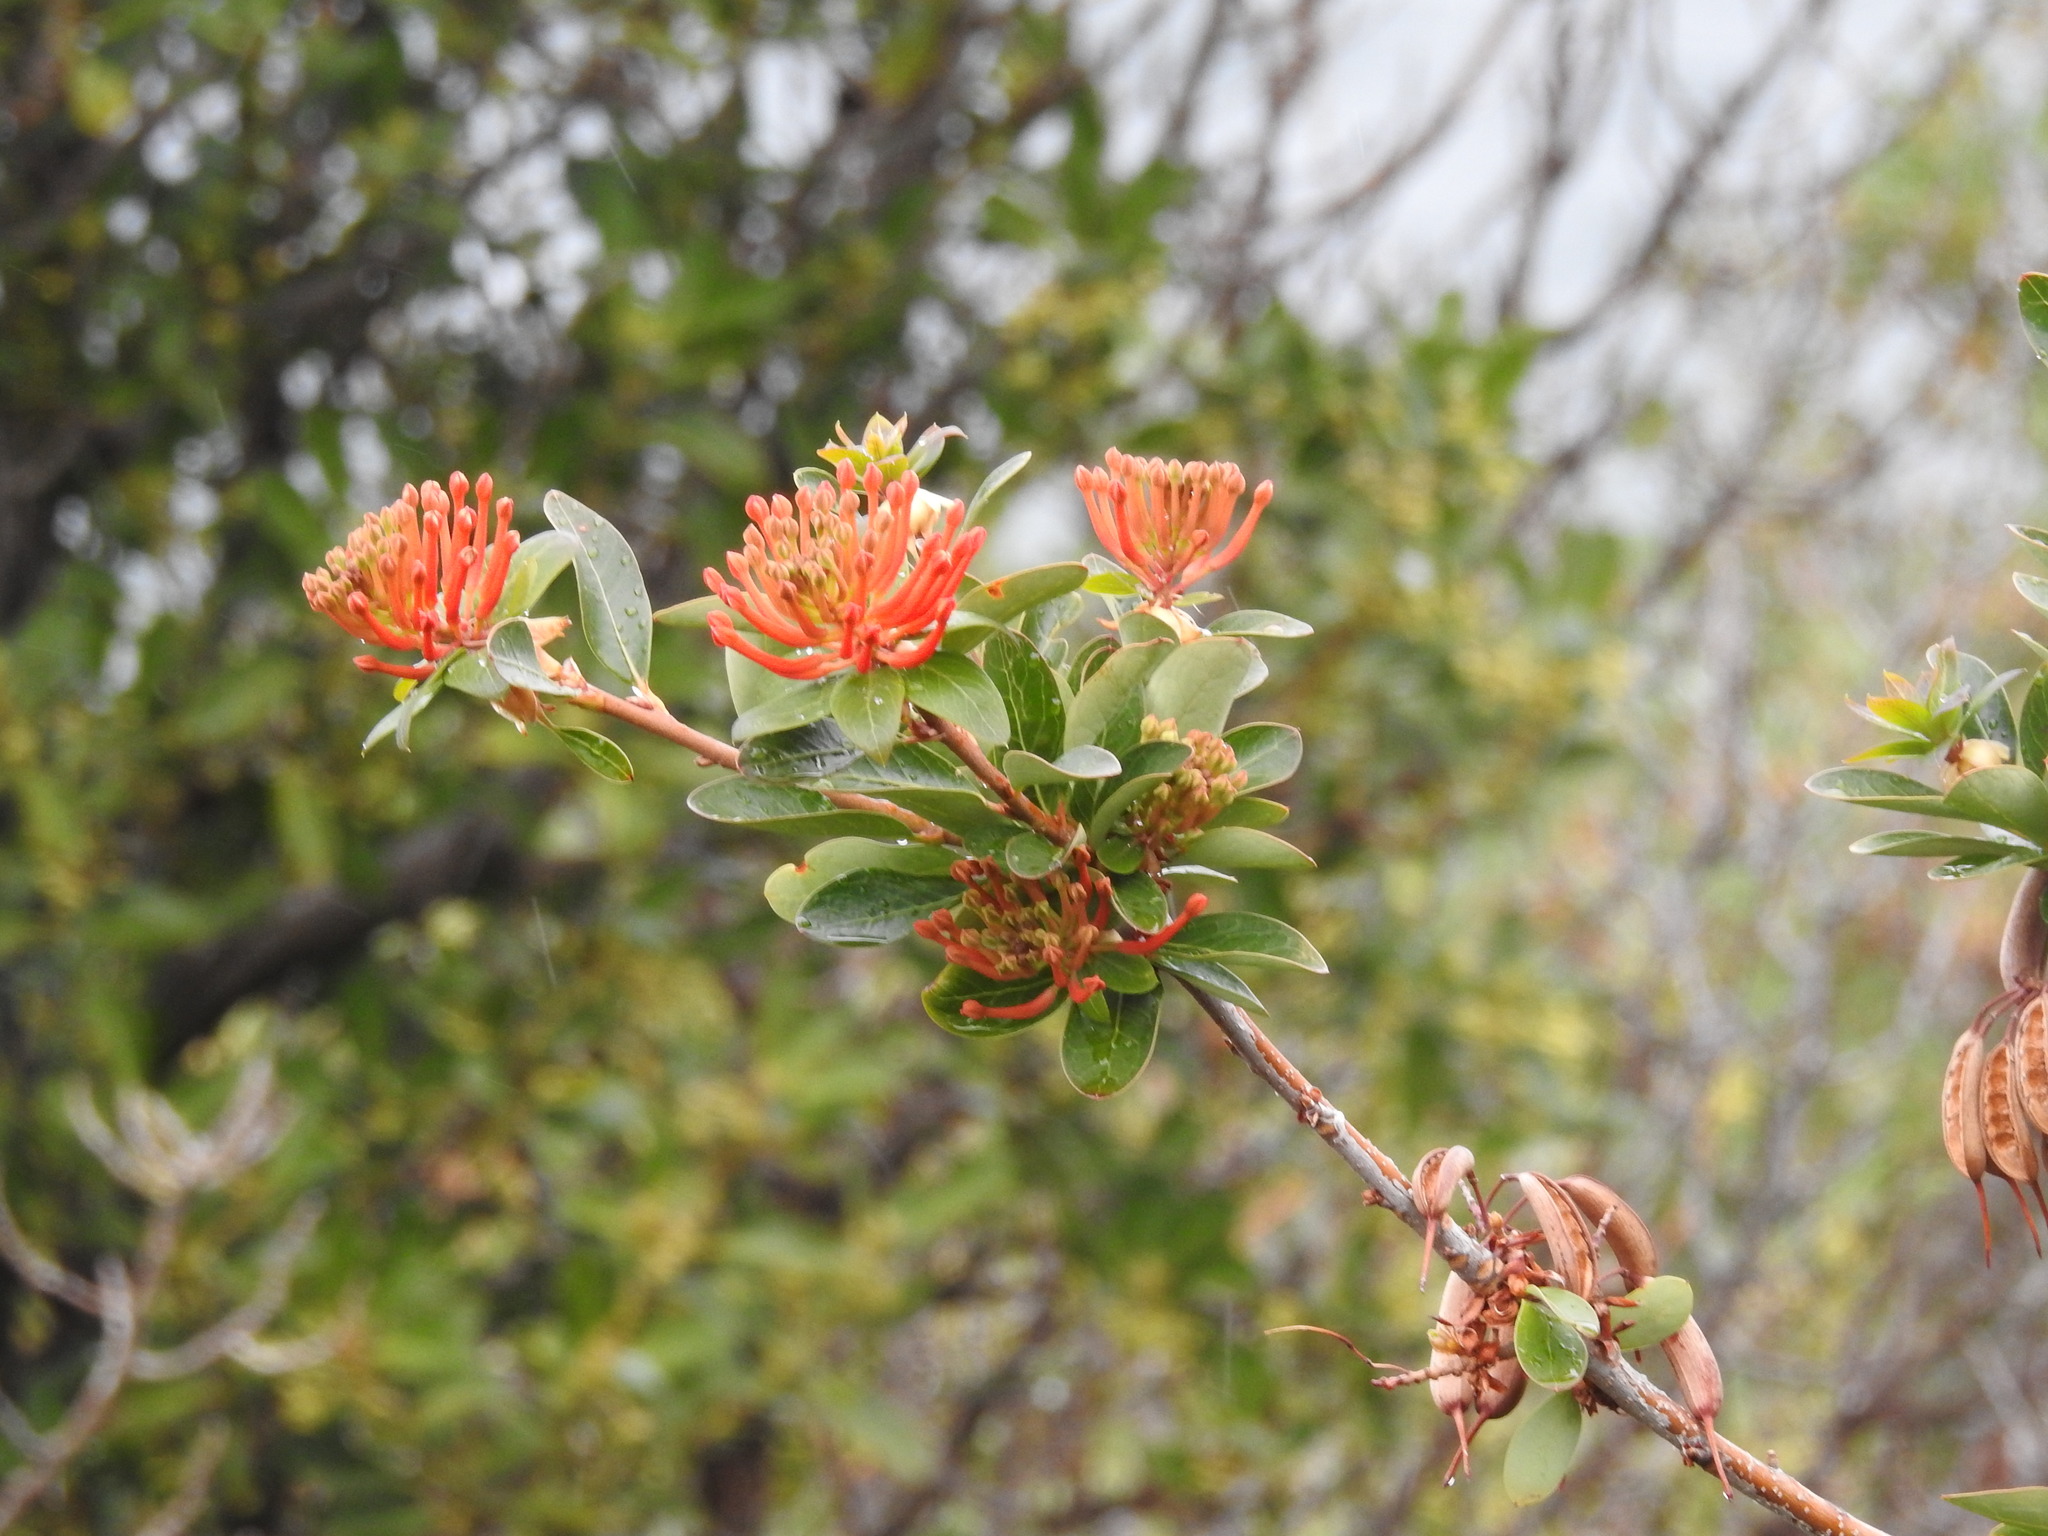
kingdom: Plantae
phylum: Tracheophyta
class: Magnoliopsida
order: Proteales
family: Proteaceae
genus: Embothrium
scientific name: Embothrium coccineum
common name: Chilean firebush
